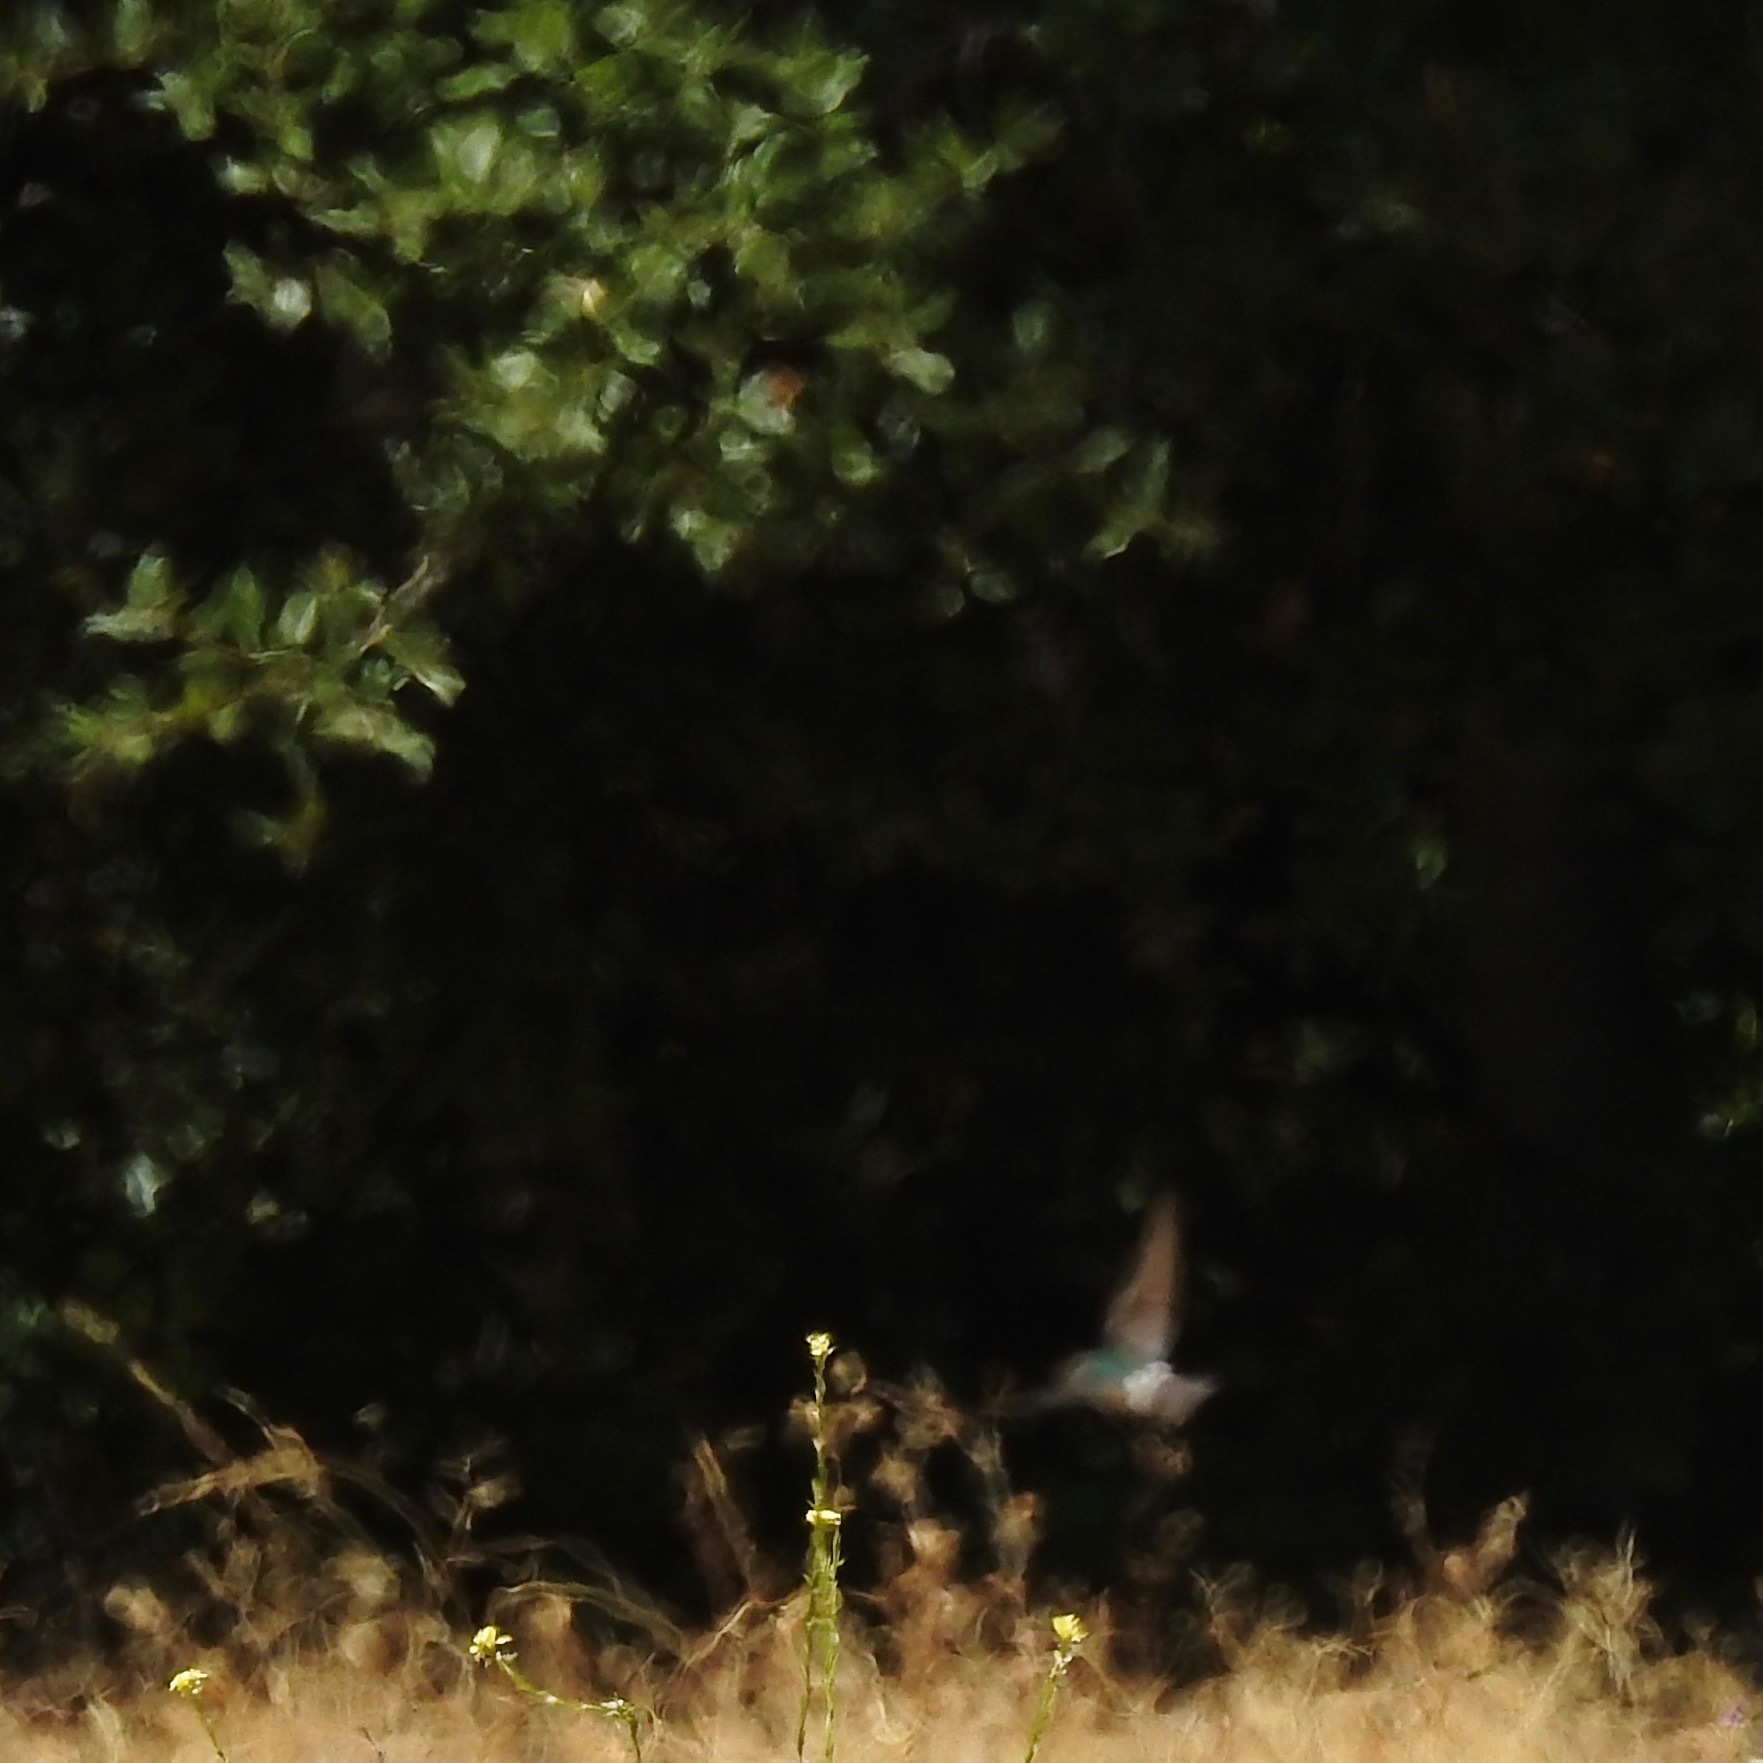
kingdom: Animalia
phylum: Chordata
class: Aves
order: Passeriformes
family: Hirundinidae
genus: Tachycineta
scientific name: Tachycineta thalassina
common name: Violet-green swallow
